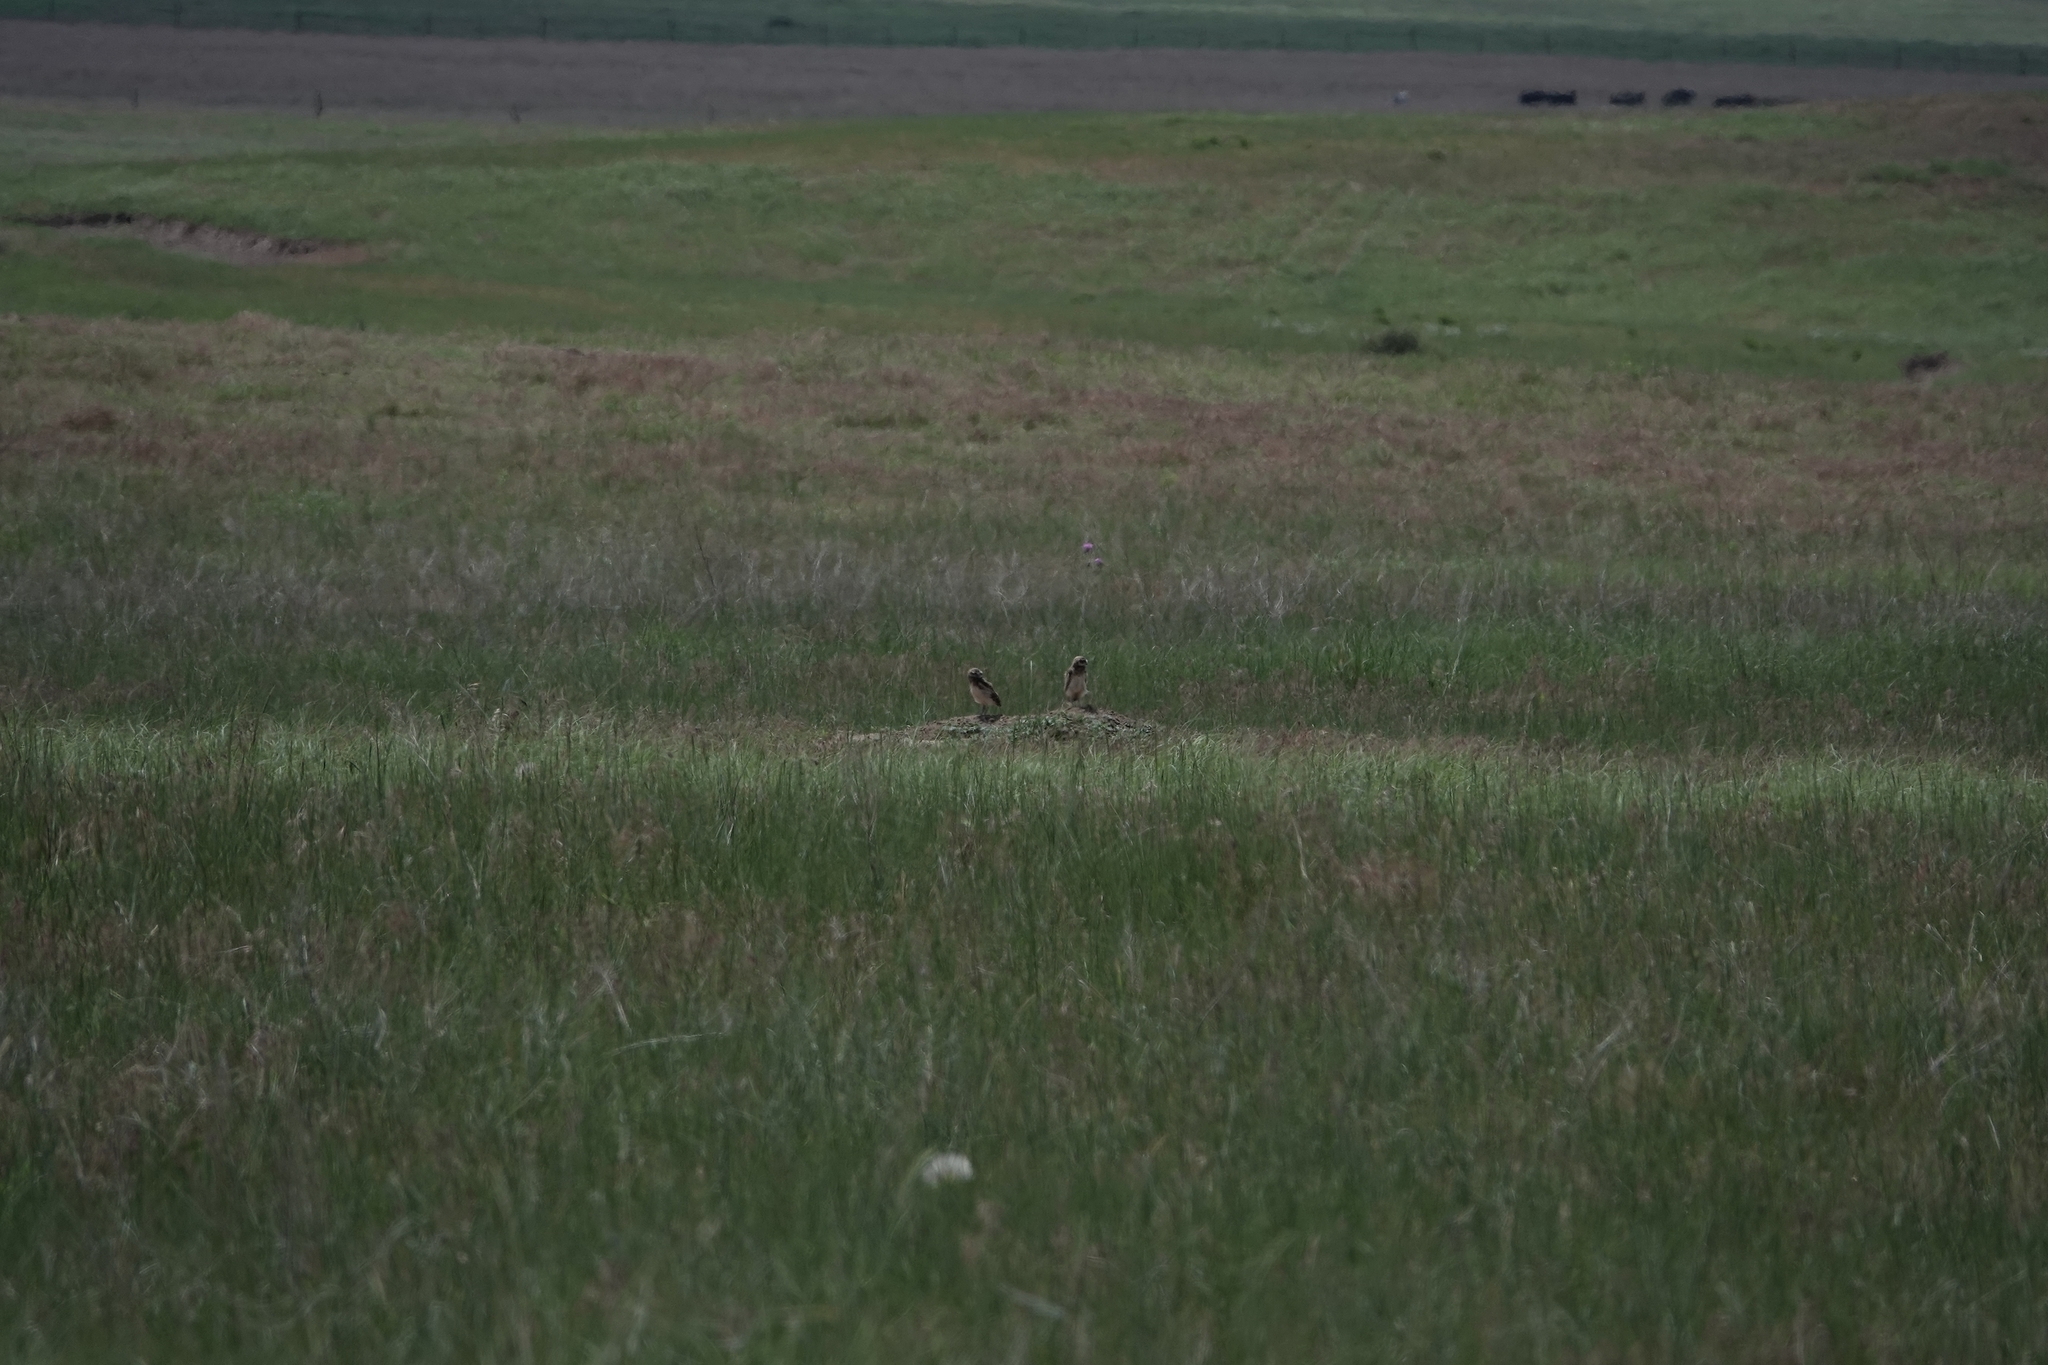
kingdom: Animalia
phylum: Chordata
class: Aves
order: Strigiformes
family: Strigidae
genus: Athene
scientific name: Athene cunicularia
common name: Burrowing owl
